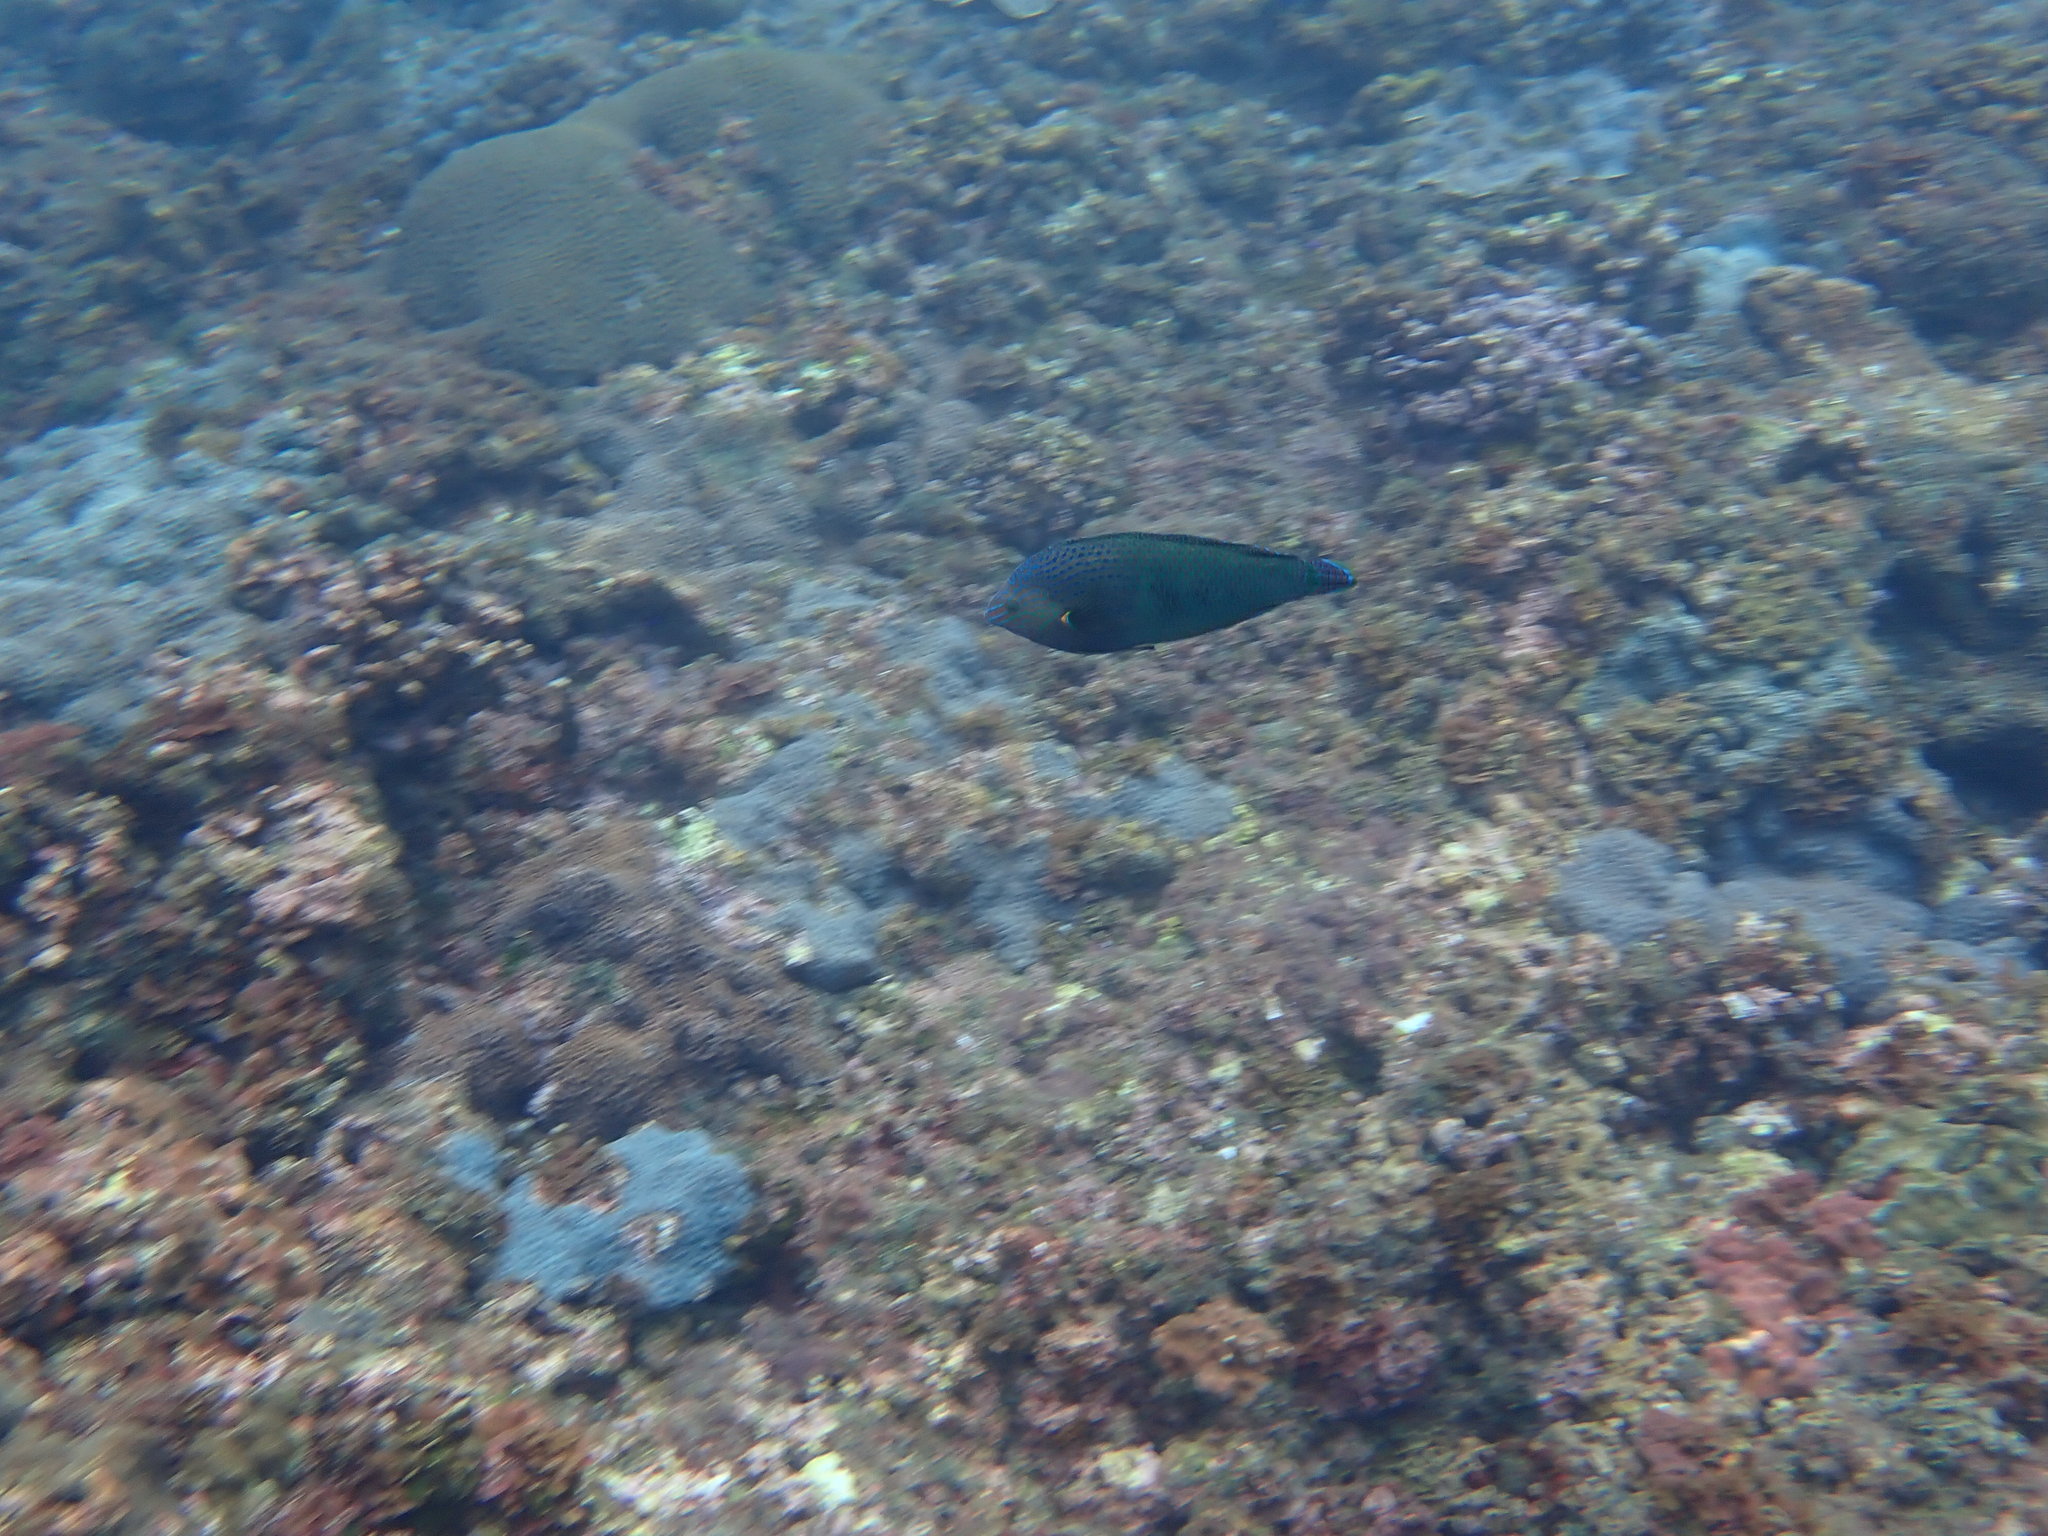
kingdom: Animalia
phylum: Chordata
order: Perciformes
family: Labridae
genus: Anampses
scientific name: Anampses caeruleopunctatus
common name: Bluespotted wrasse
